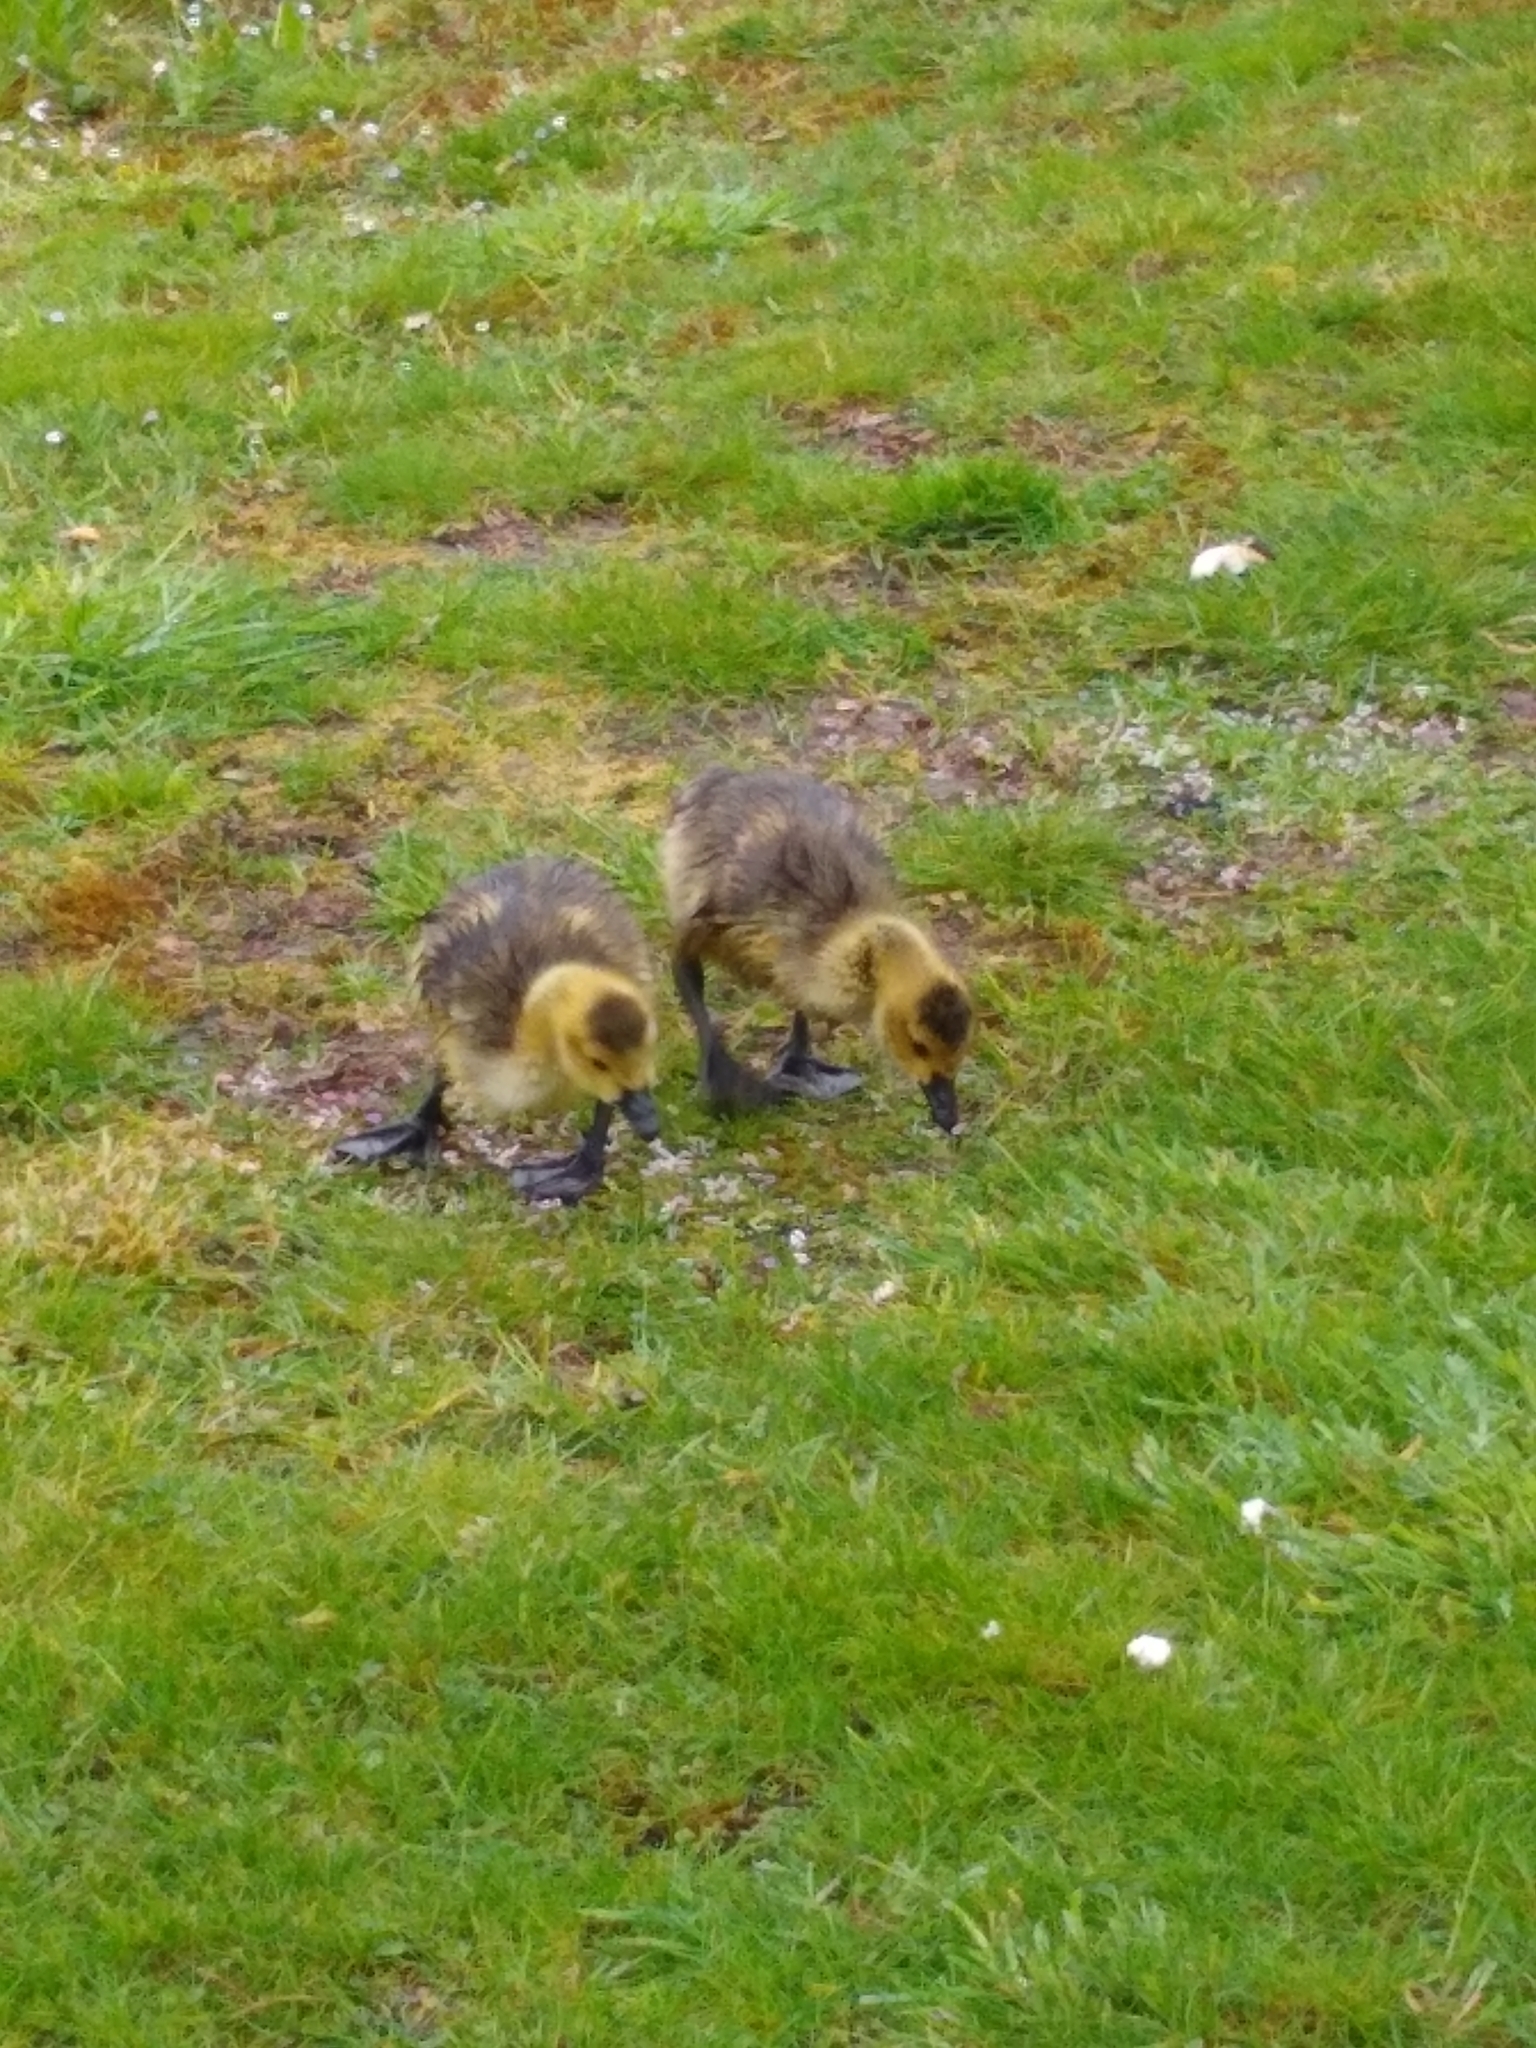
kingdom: Animalia
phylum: Chordata
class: Aves
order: Anseriformes
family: Anatidae
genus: Branta
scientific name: Branta canadensis
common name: Canada goose
